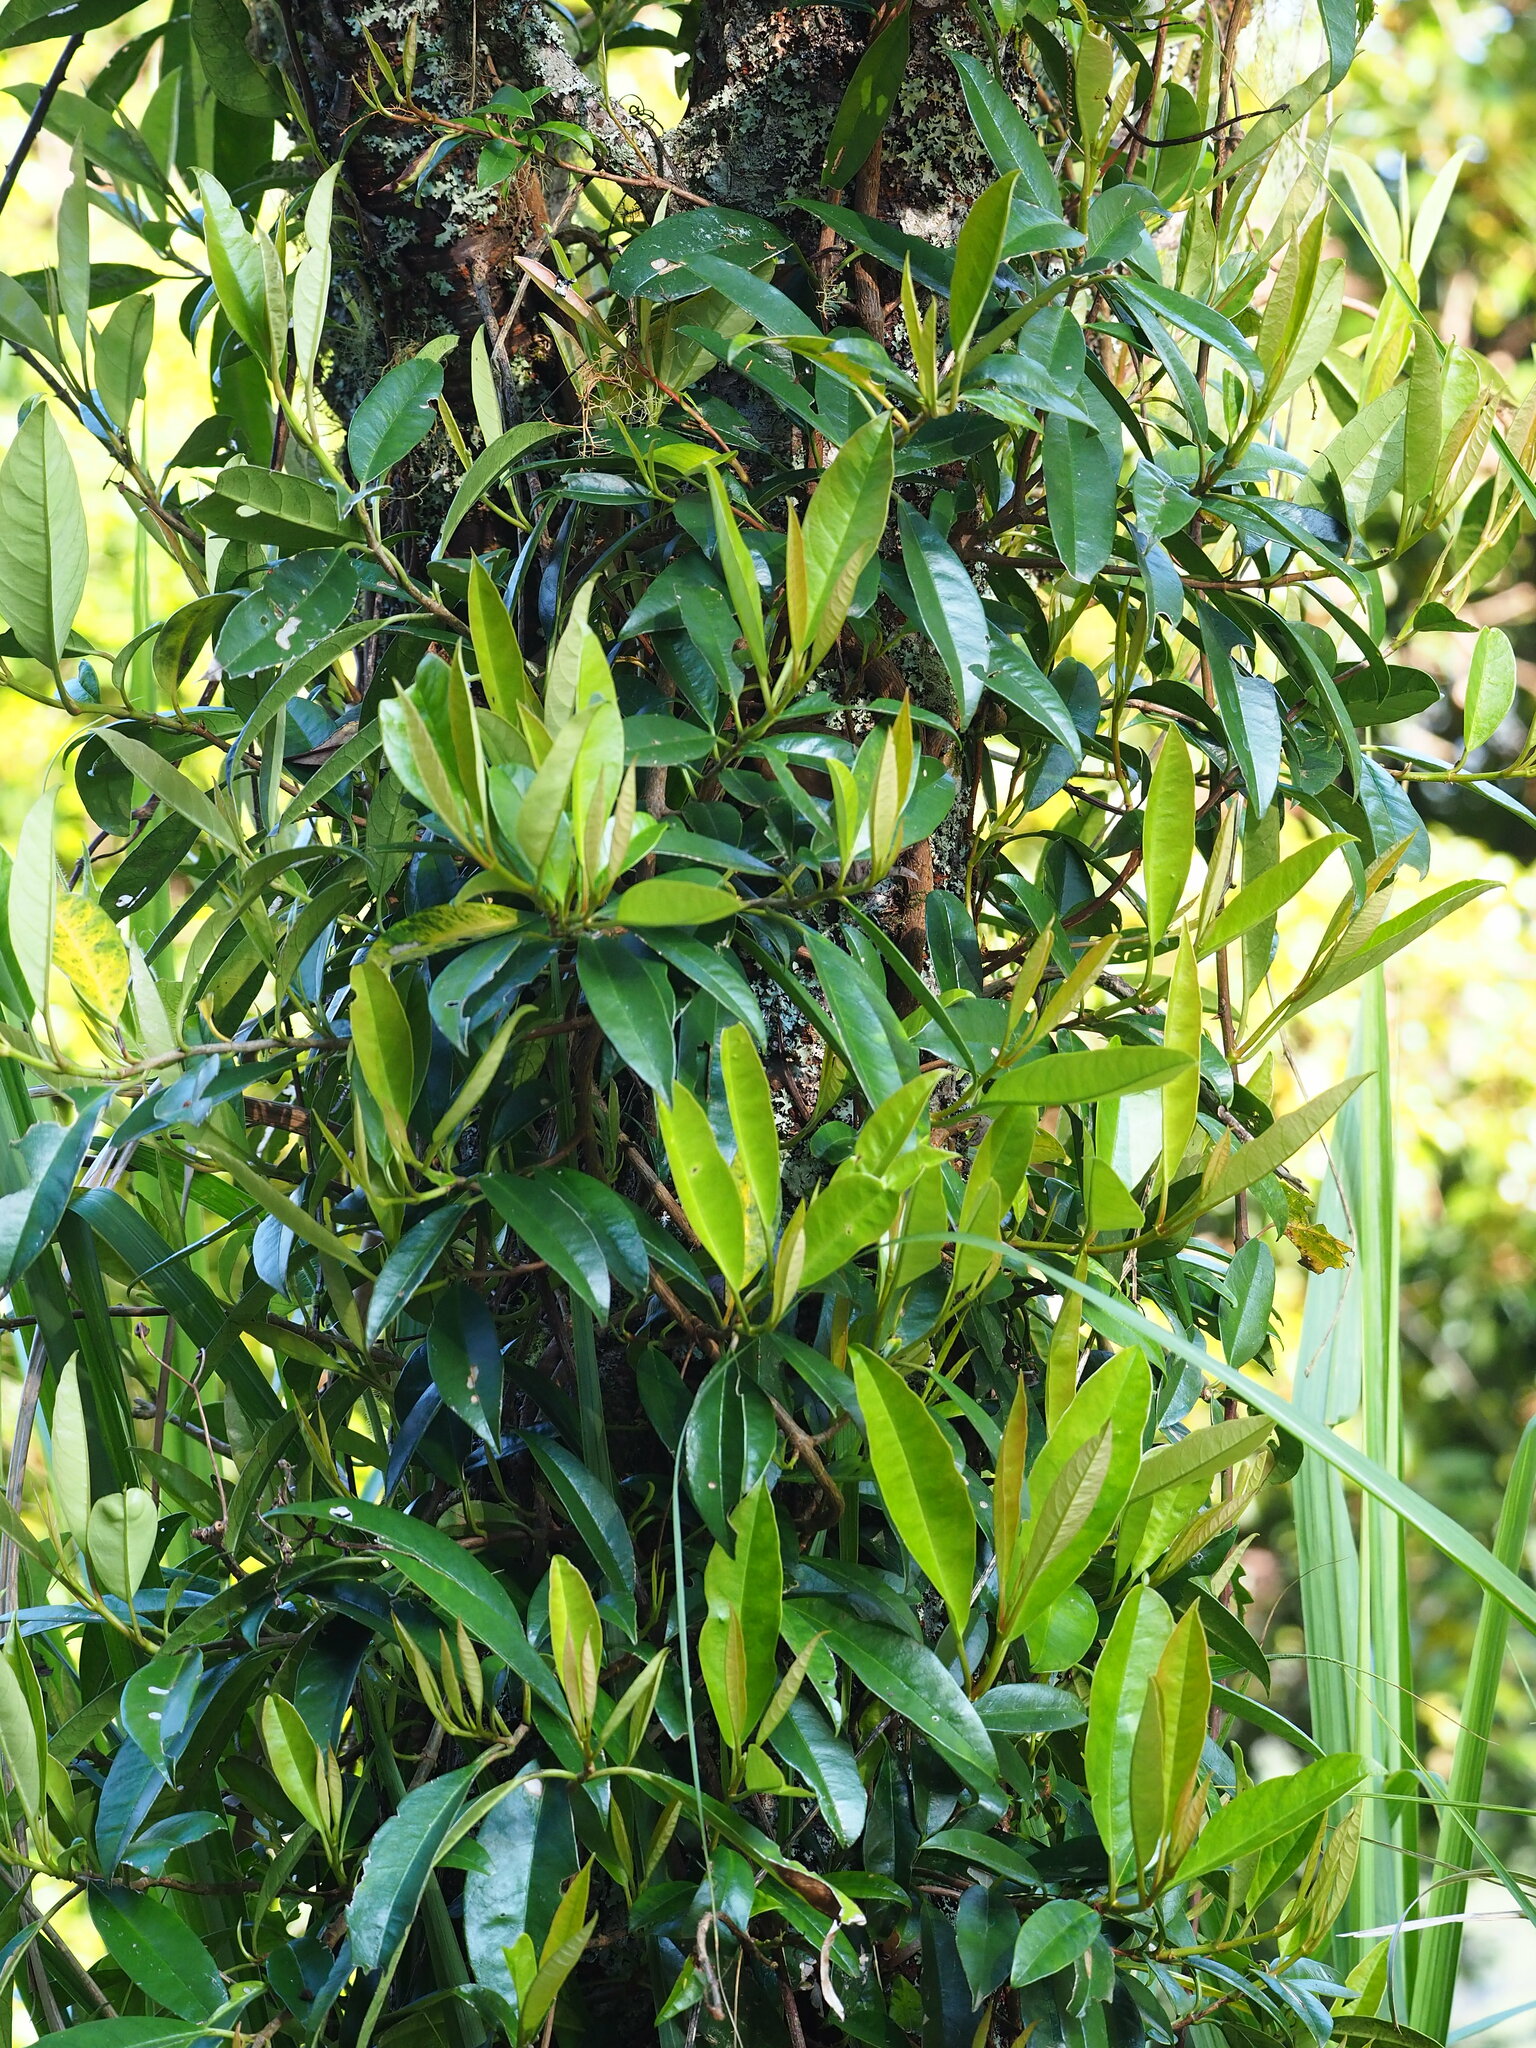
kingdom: Plantae
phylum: Tracheophyta
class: Magnoliopsida
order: Cornales
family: Hydrangeaceae
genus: Hydrangea
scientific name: Hydrangea viburnoides
